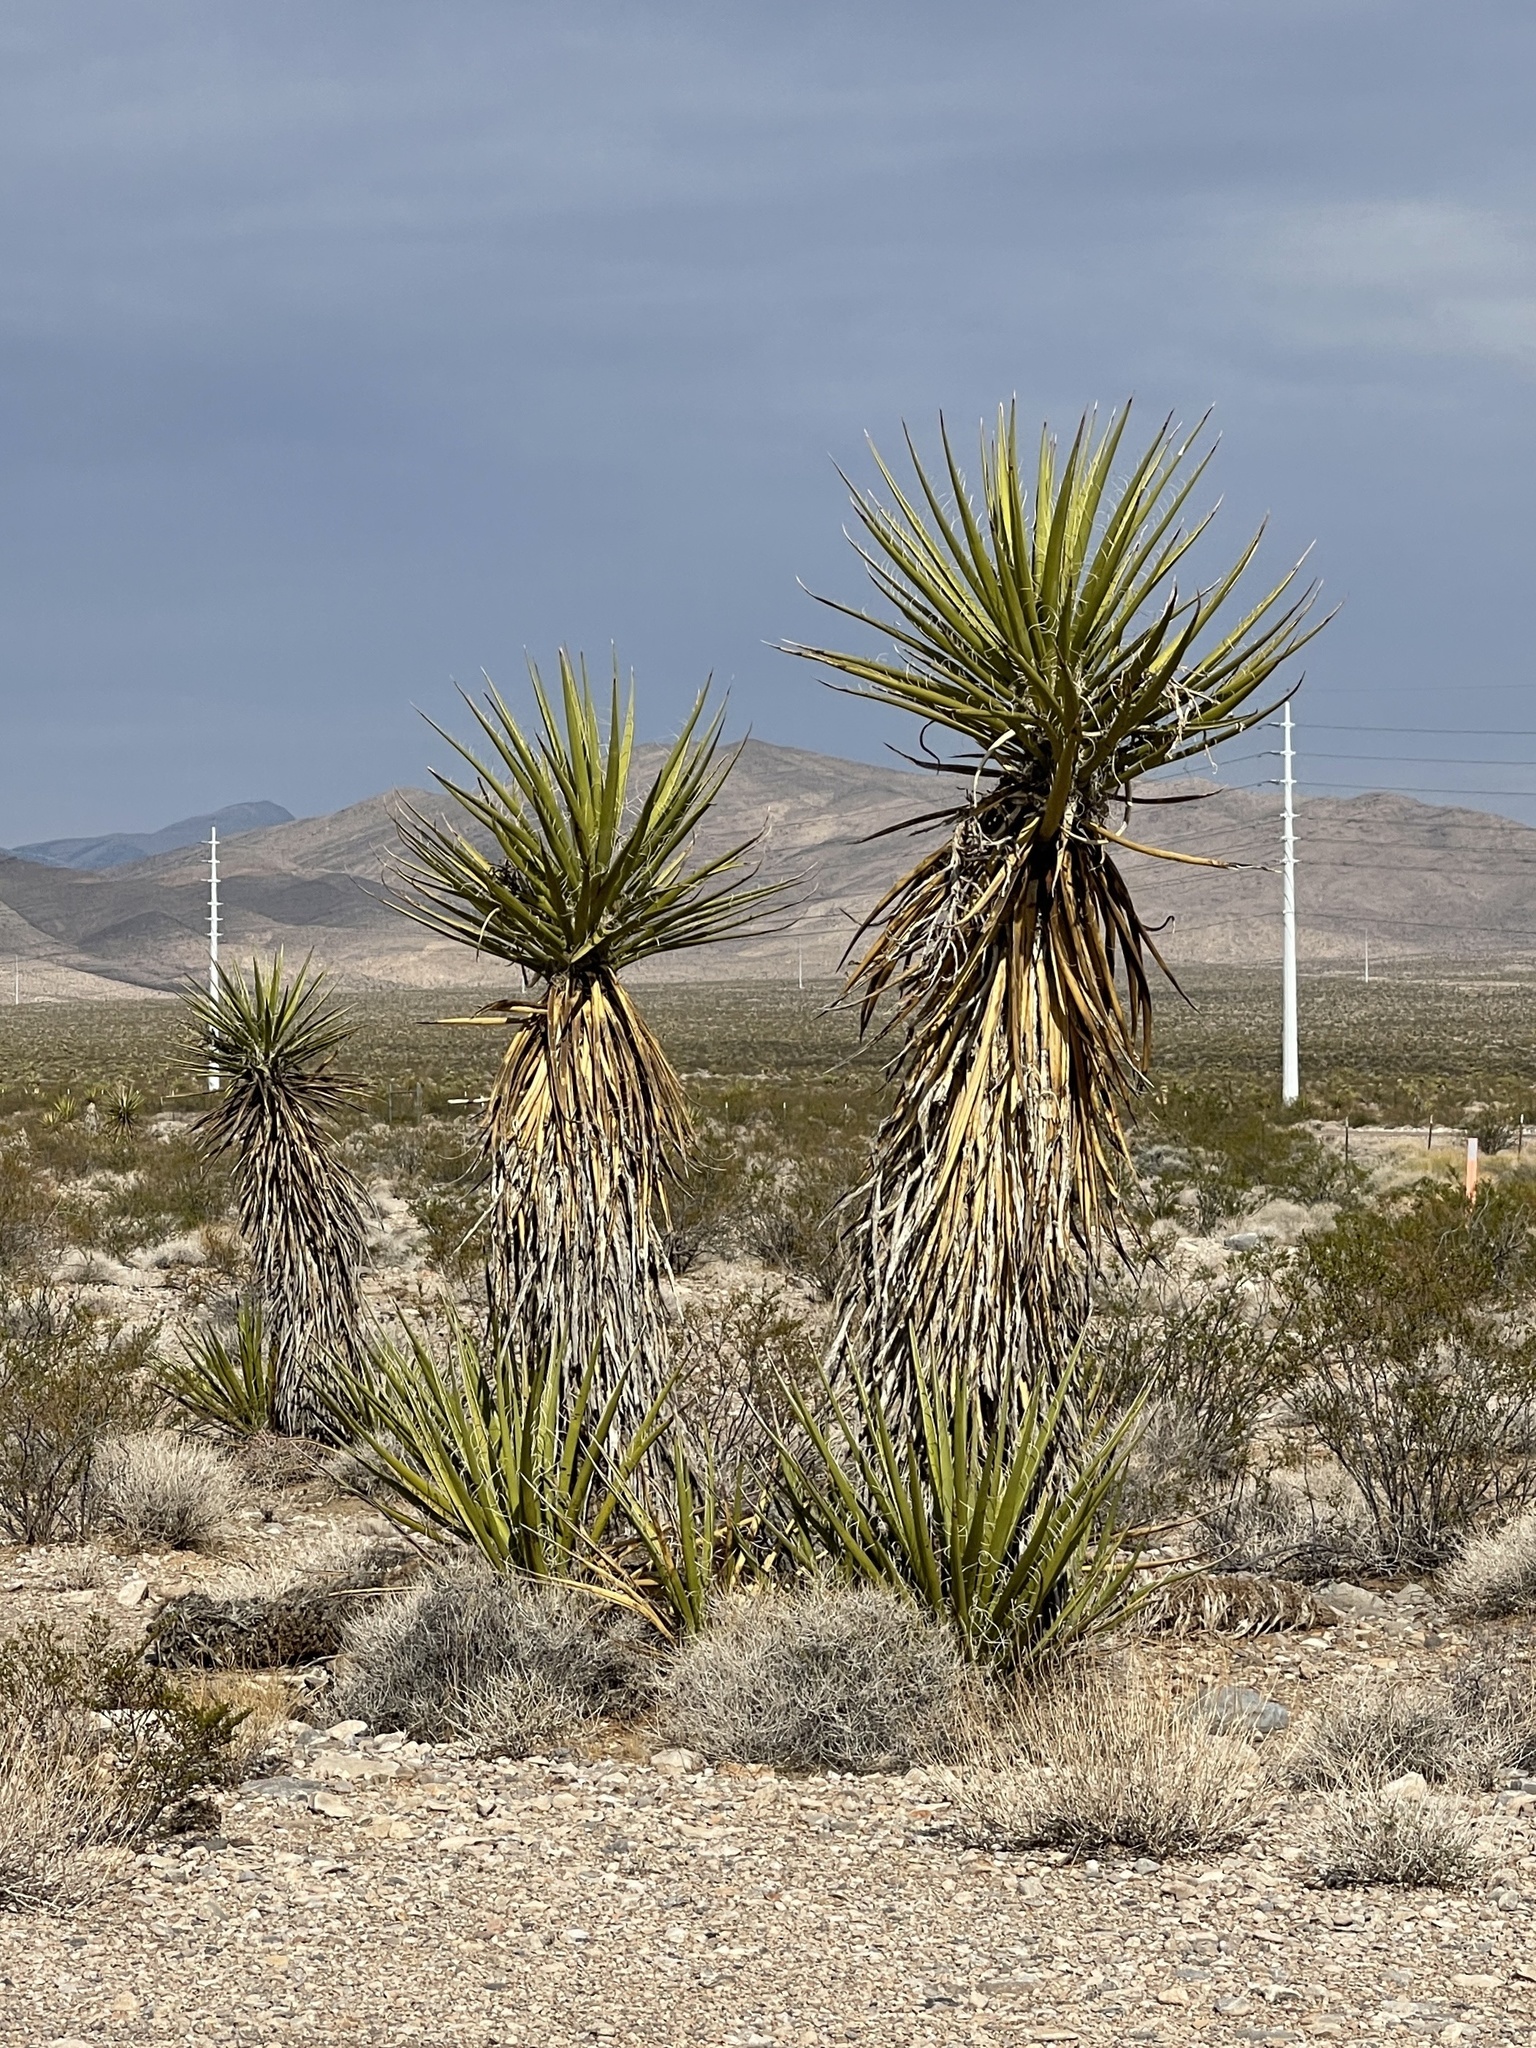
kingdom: Plantae
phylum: Tracheophyta
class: Liliopsida
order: Asparagales
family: Asparagaceae
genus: Yucca
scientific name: Yucca schidigera
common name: Mojave yucca
